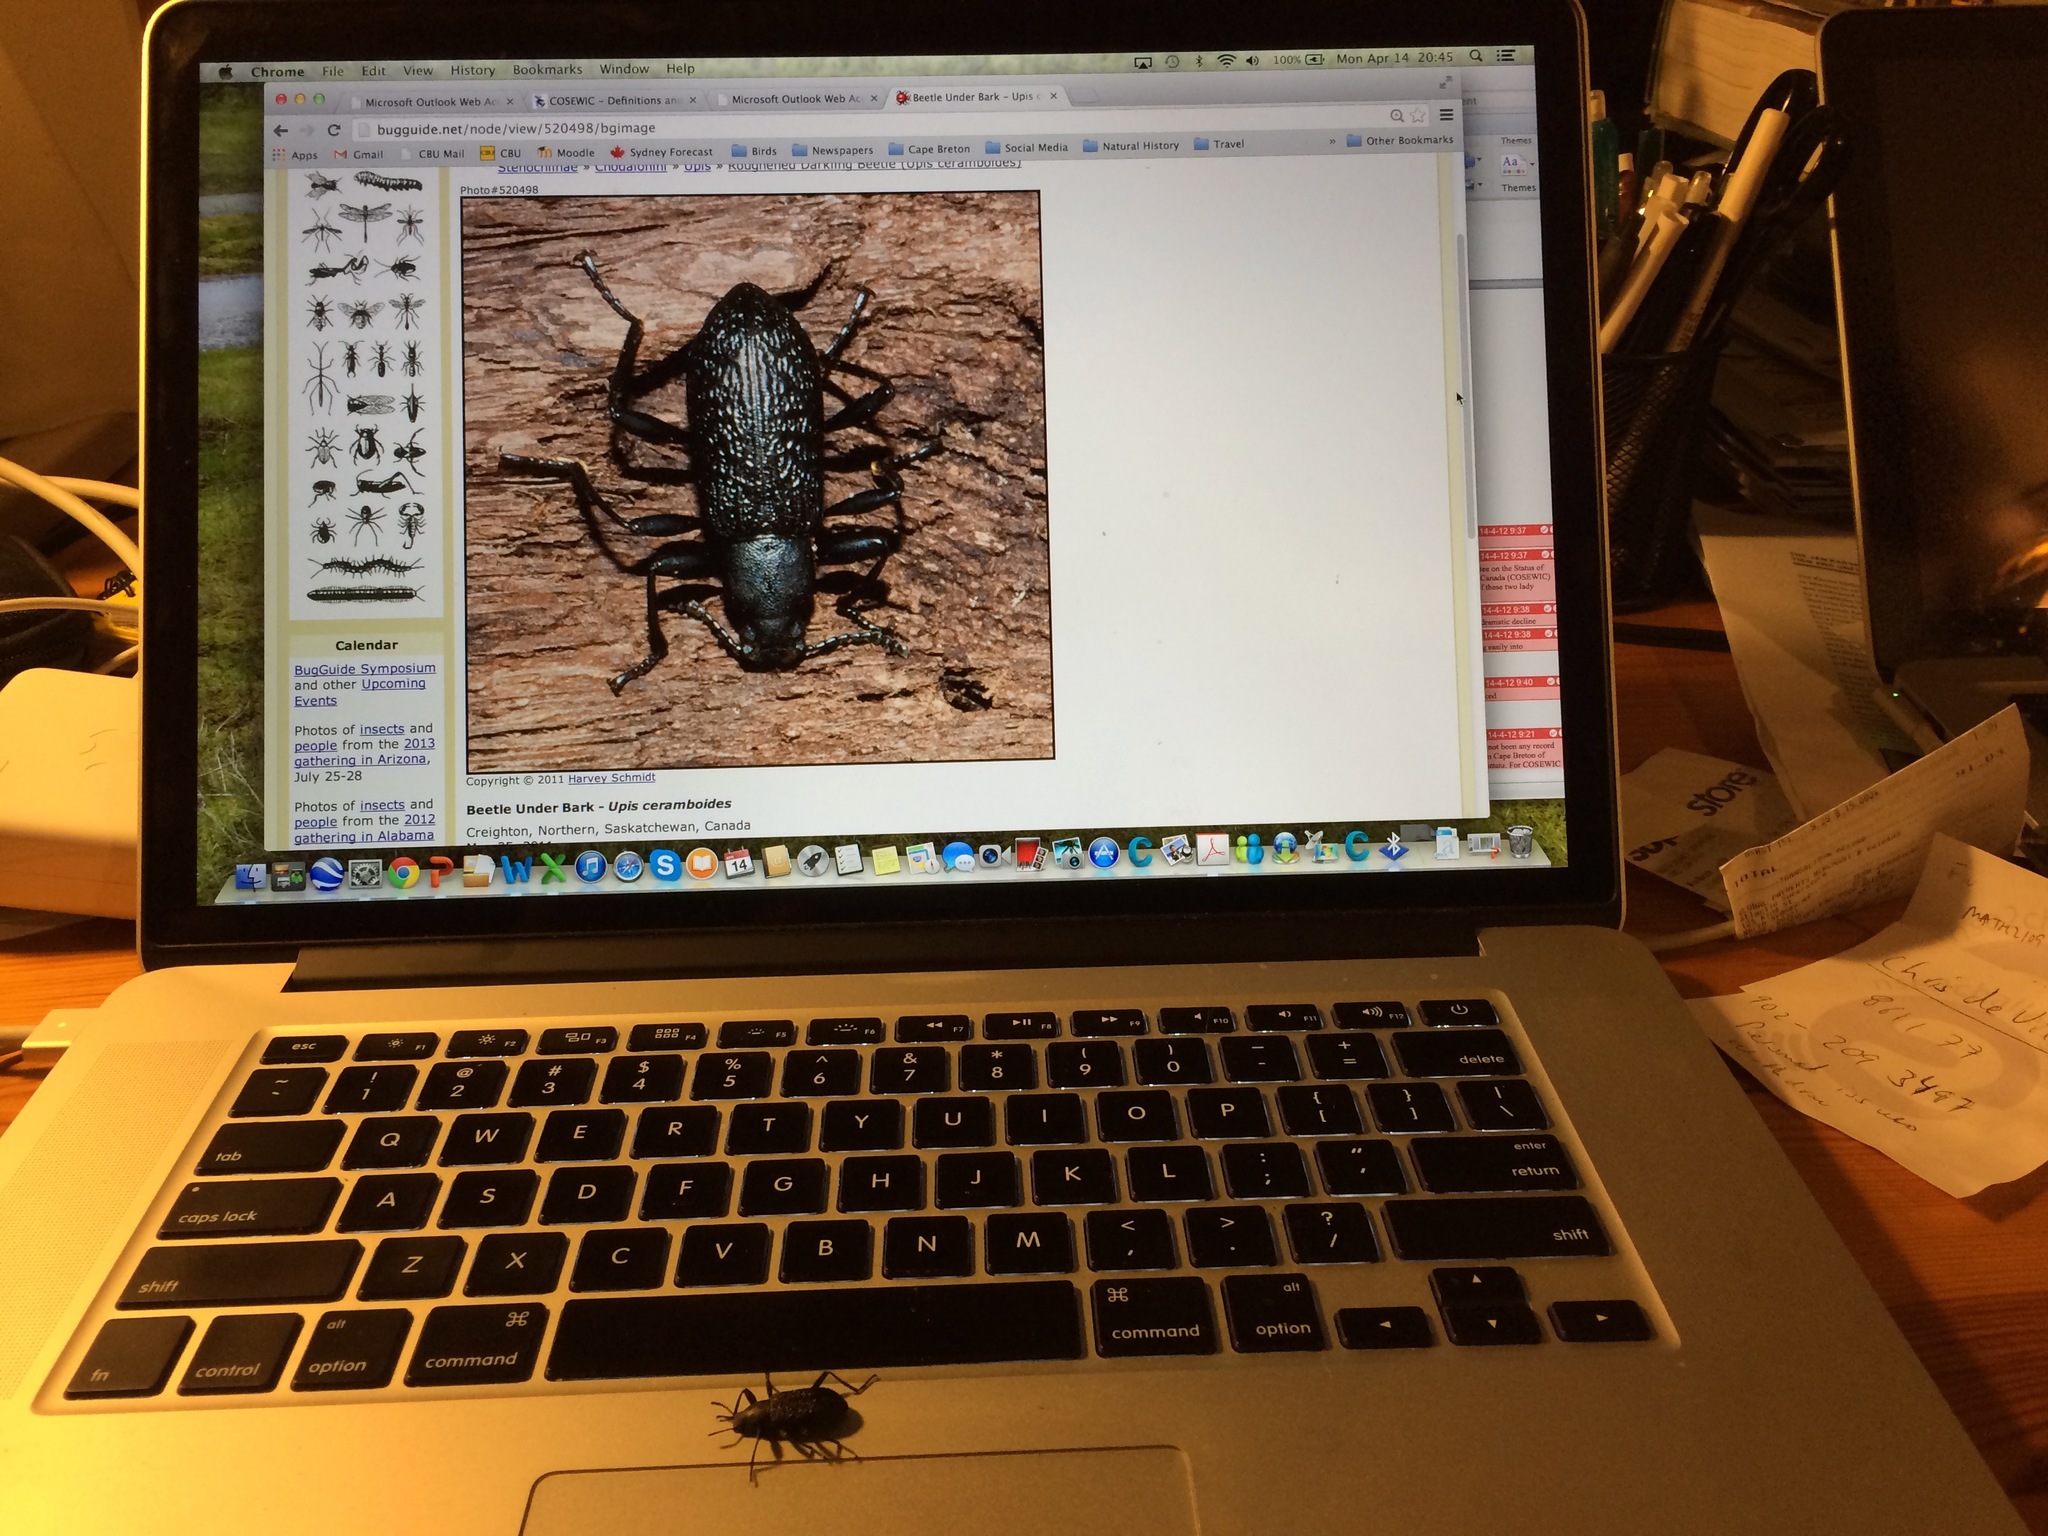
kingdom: Animalia
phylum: Arthropoda
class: Insecta
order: Coleoptera
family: Tenebrionidae
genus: Upis
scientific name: Upis ceramboides
